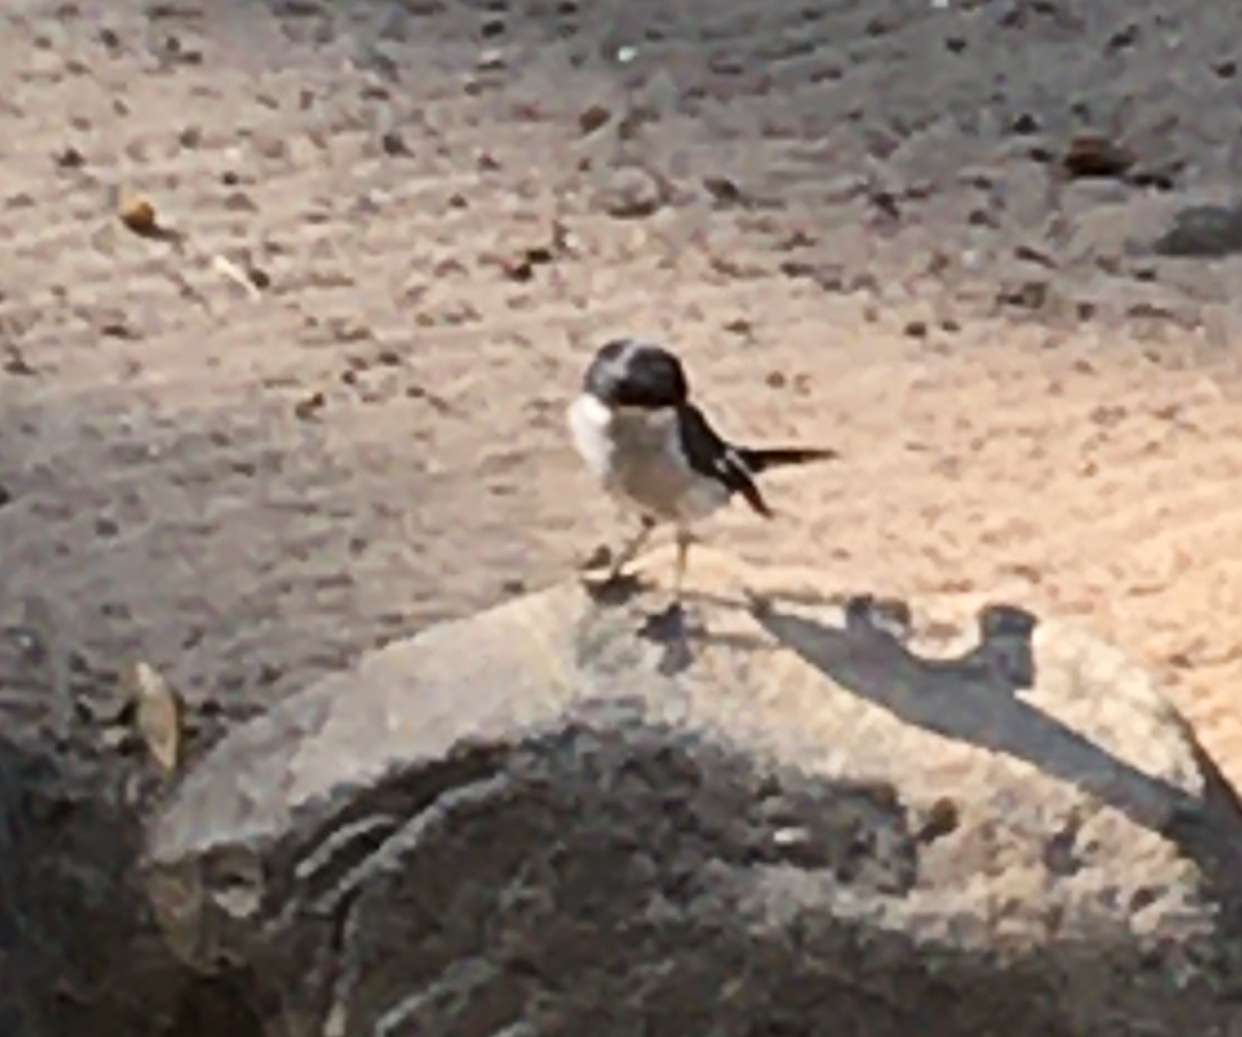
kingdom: Animalia
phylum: Chordata
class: Aves
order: Passeriformes
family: Muscicapidae
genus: Sigelus
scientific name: Sigelus silens
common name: Fiscal flycatcher
